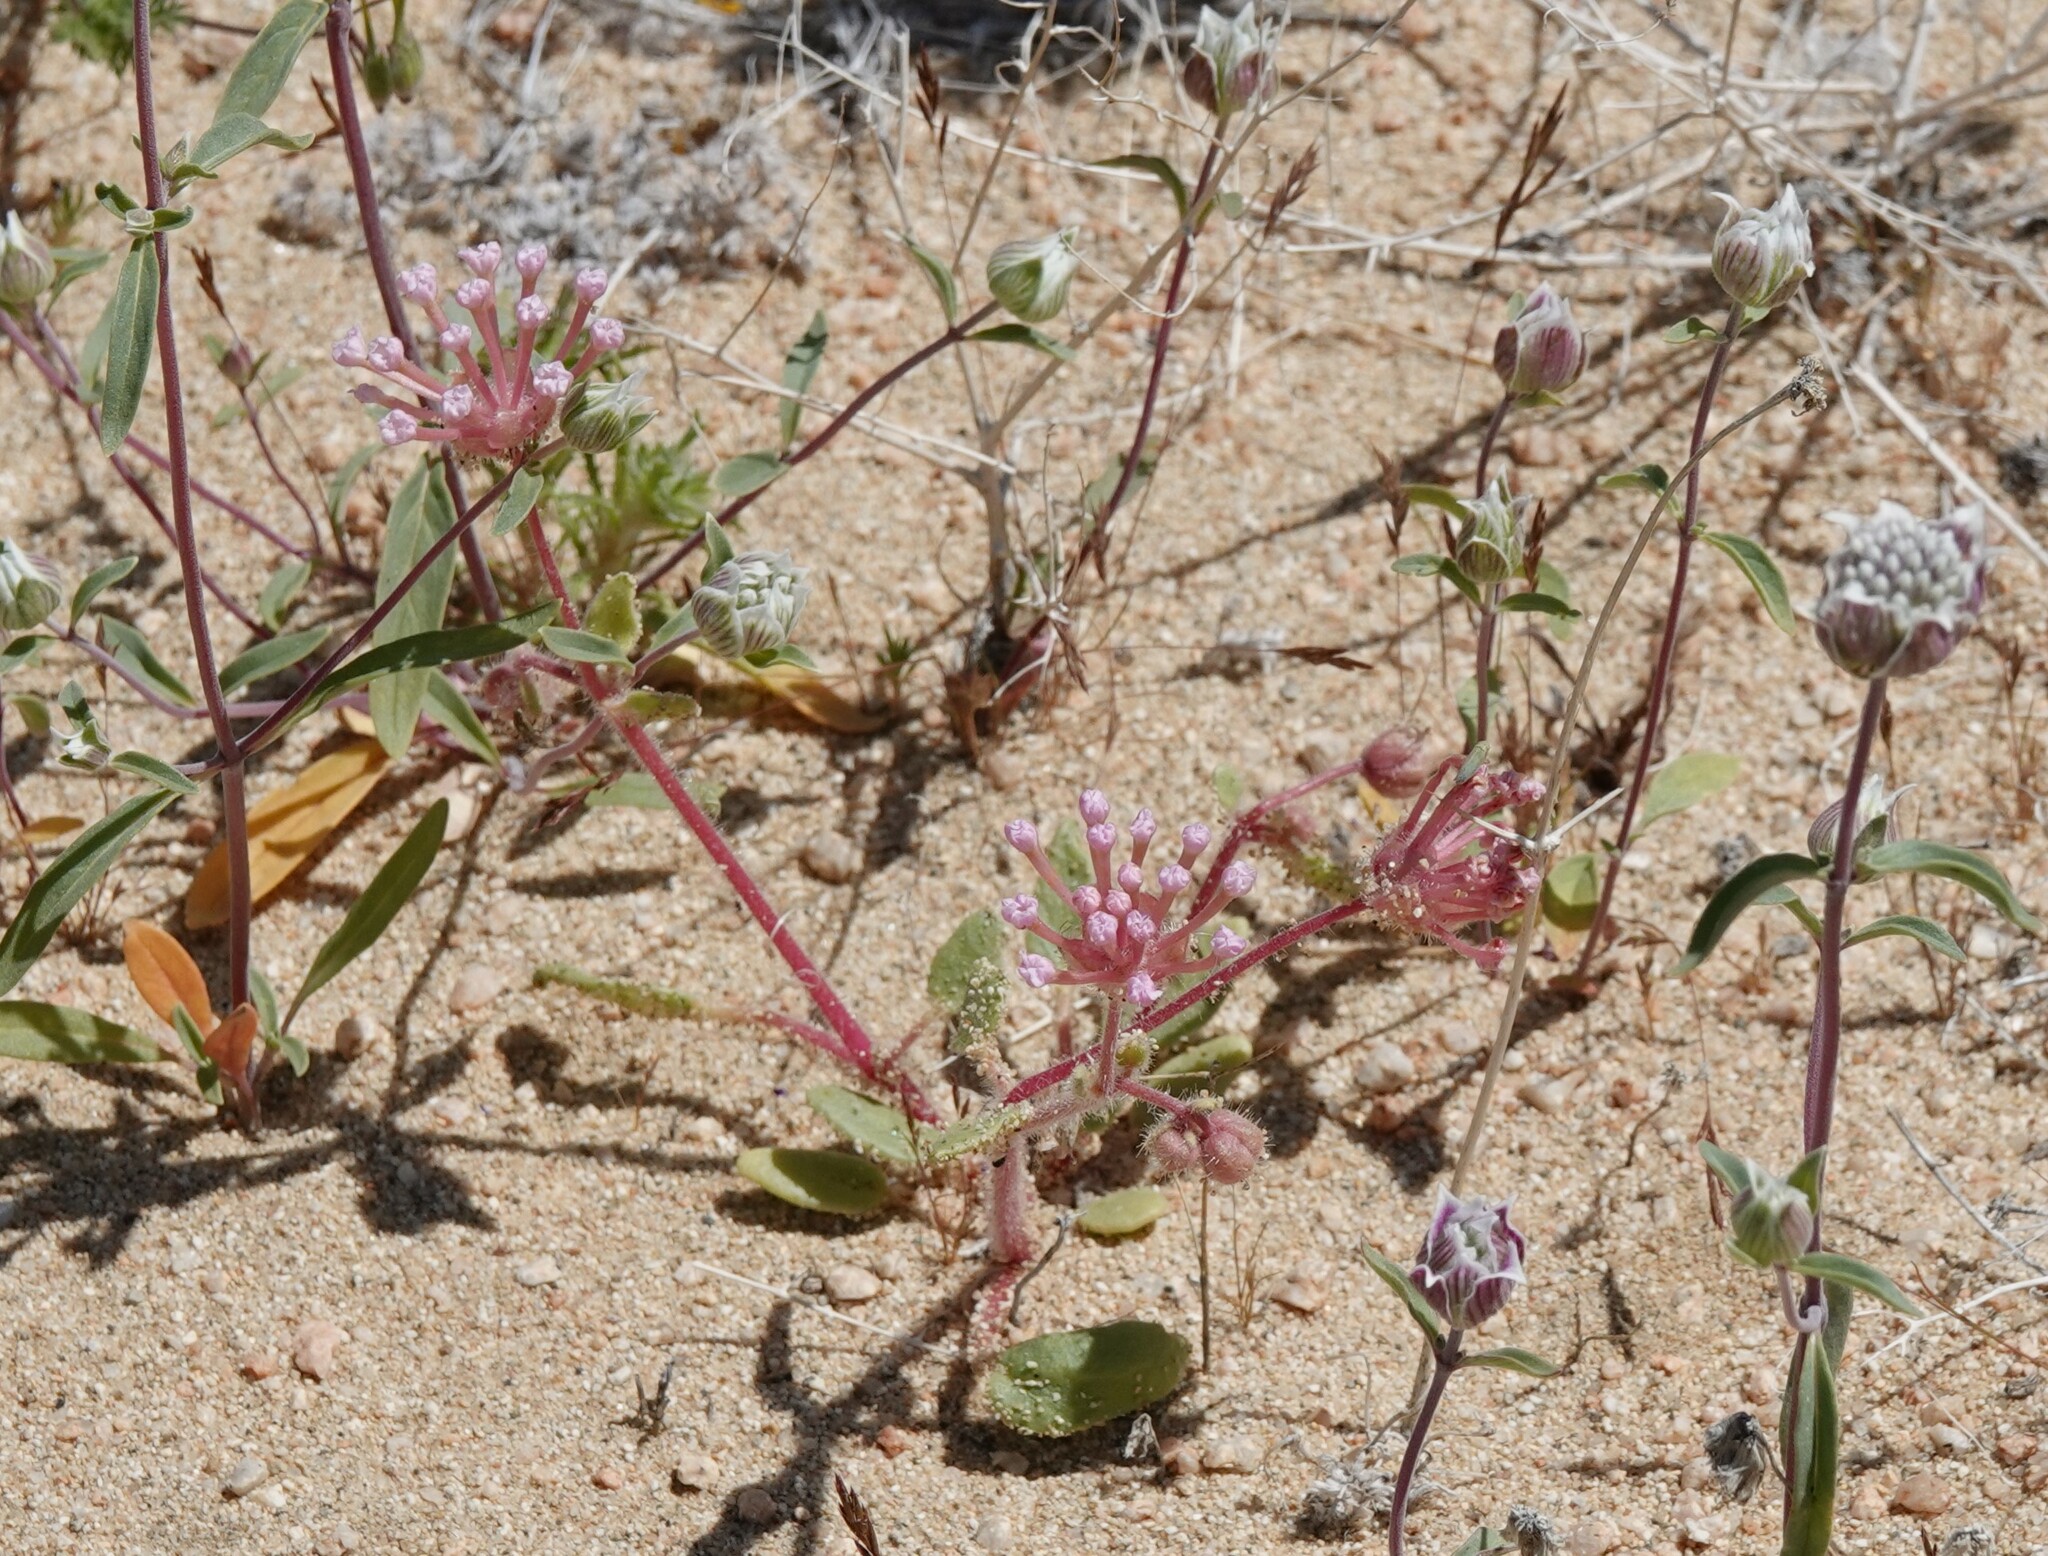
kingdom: Plantae
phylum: Tracheophyta
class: Magnoliopsida
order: Caryophyllales
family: Nyctaginaceae
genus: Abronia
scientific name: Abronia pogonantha
